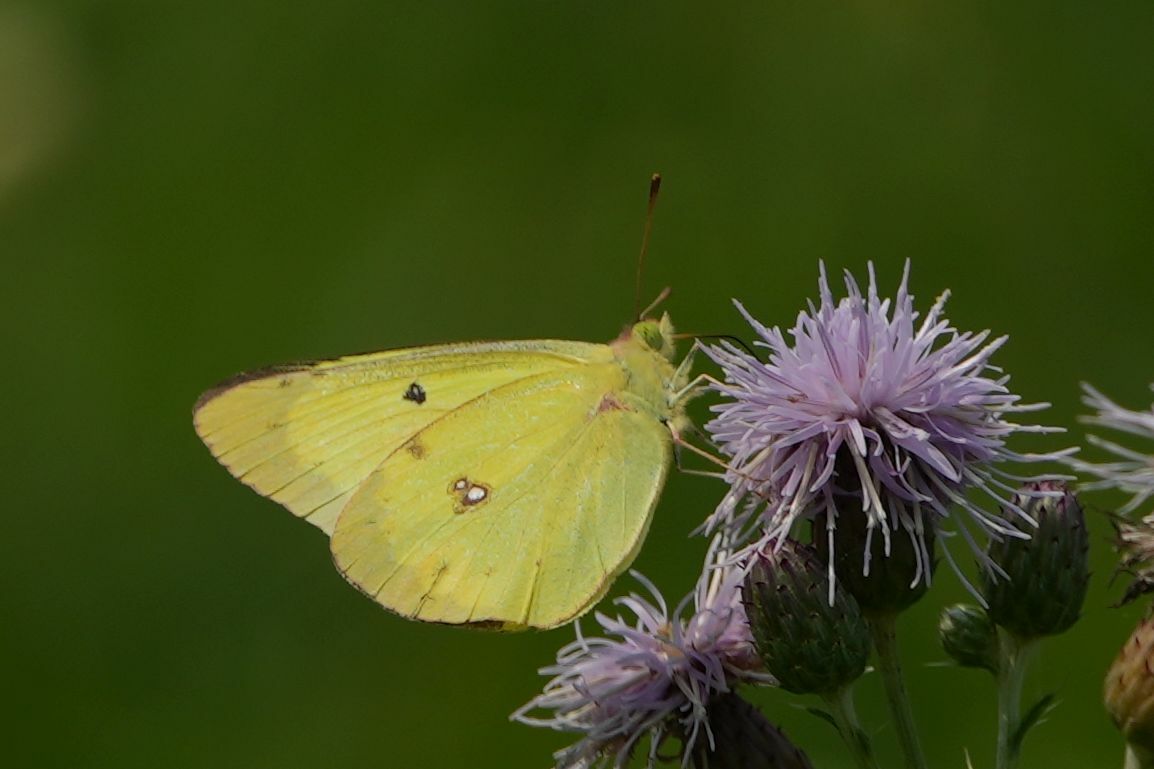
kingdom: Animalia
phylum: Arthropoda
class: Insecta
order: Lepidoptera
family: Pieridae
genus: Colias
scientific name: Colias philodice
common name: Clouded sulphur
